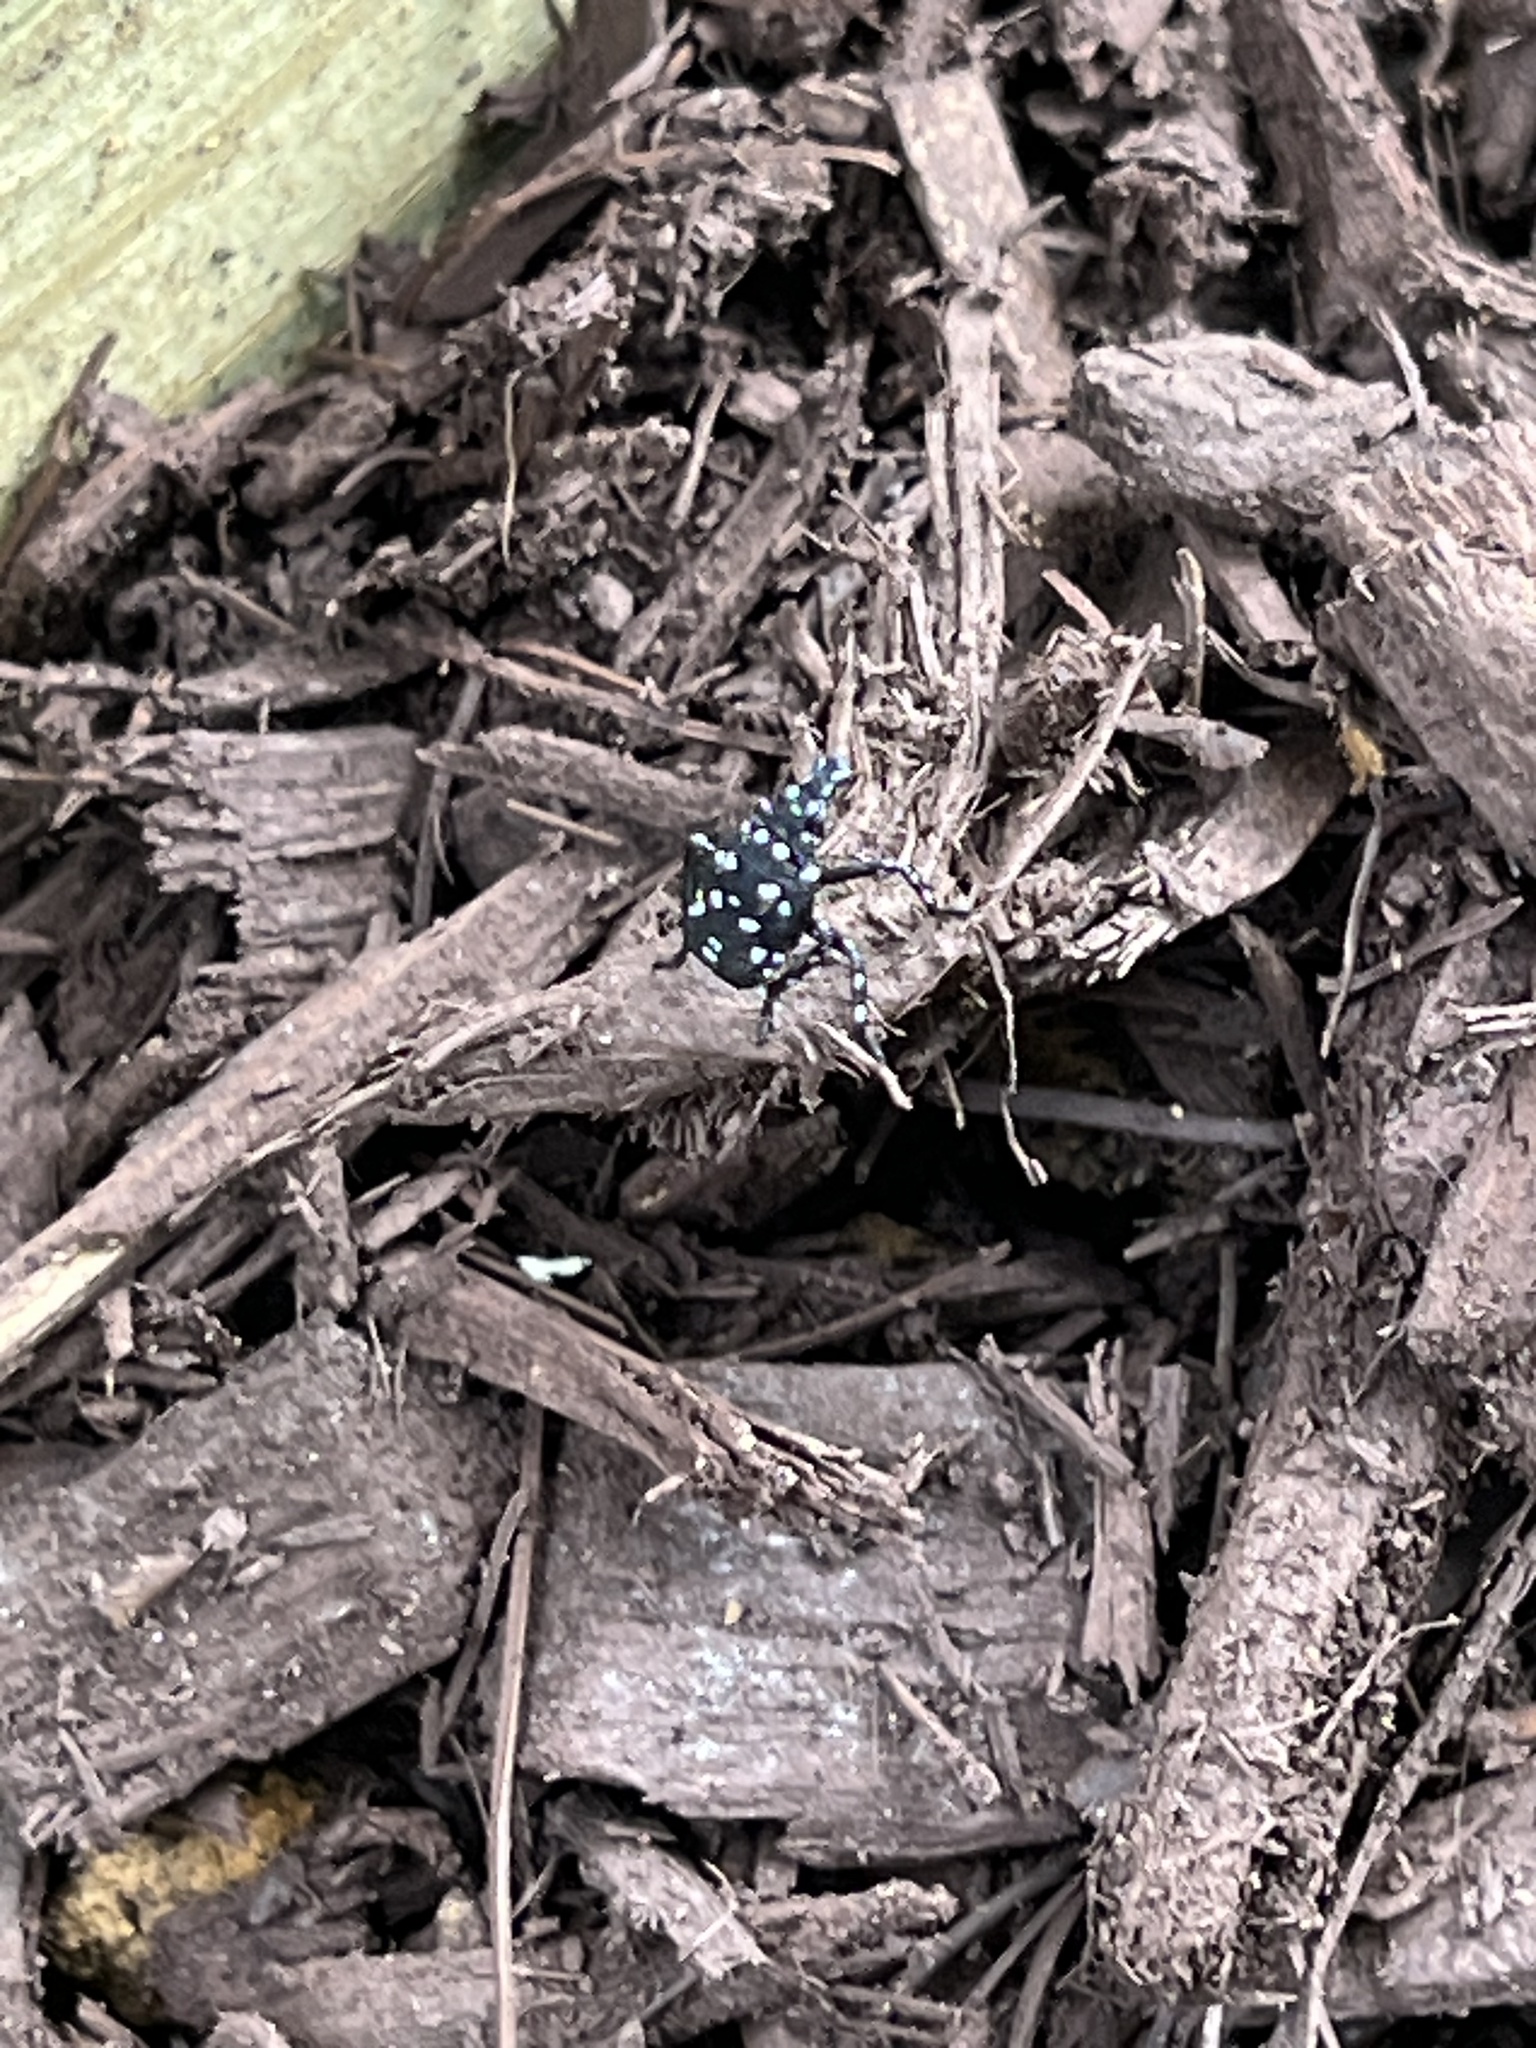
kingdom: Animalia
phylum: Arthropoda
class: Insecta
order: Hemiptera
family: Fulgoridae
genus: Lycorma
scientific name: Lycorma delicatula
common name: Spotted lanternfly
